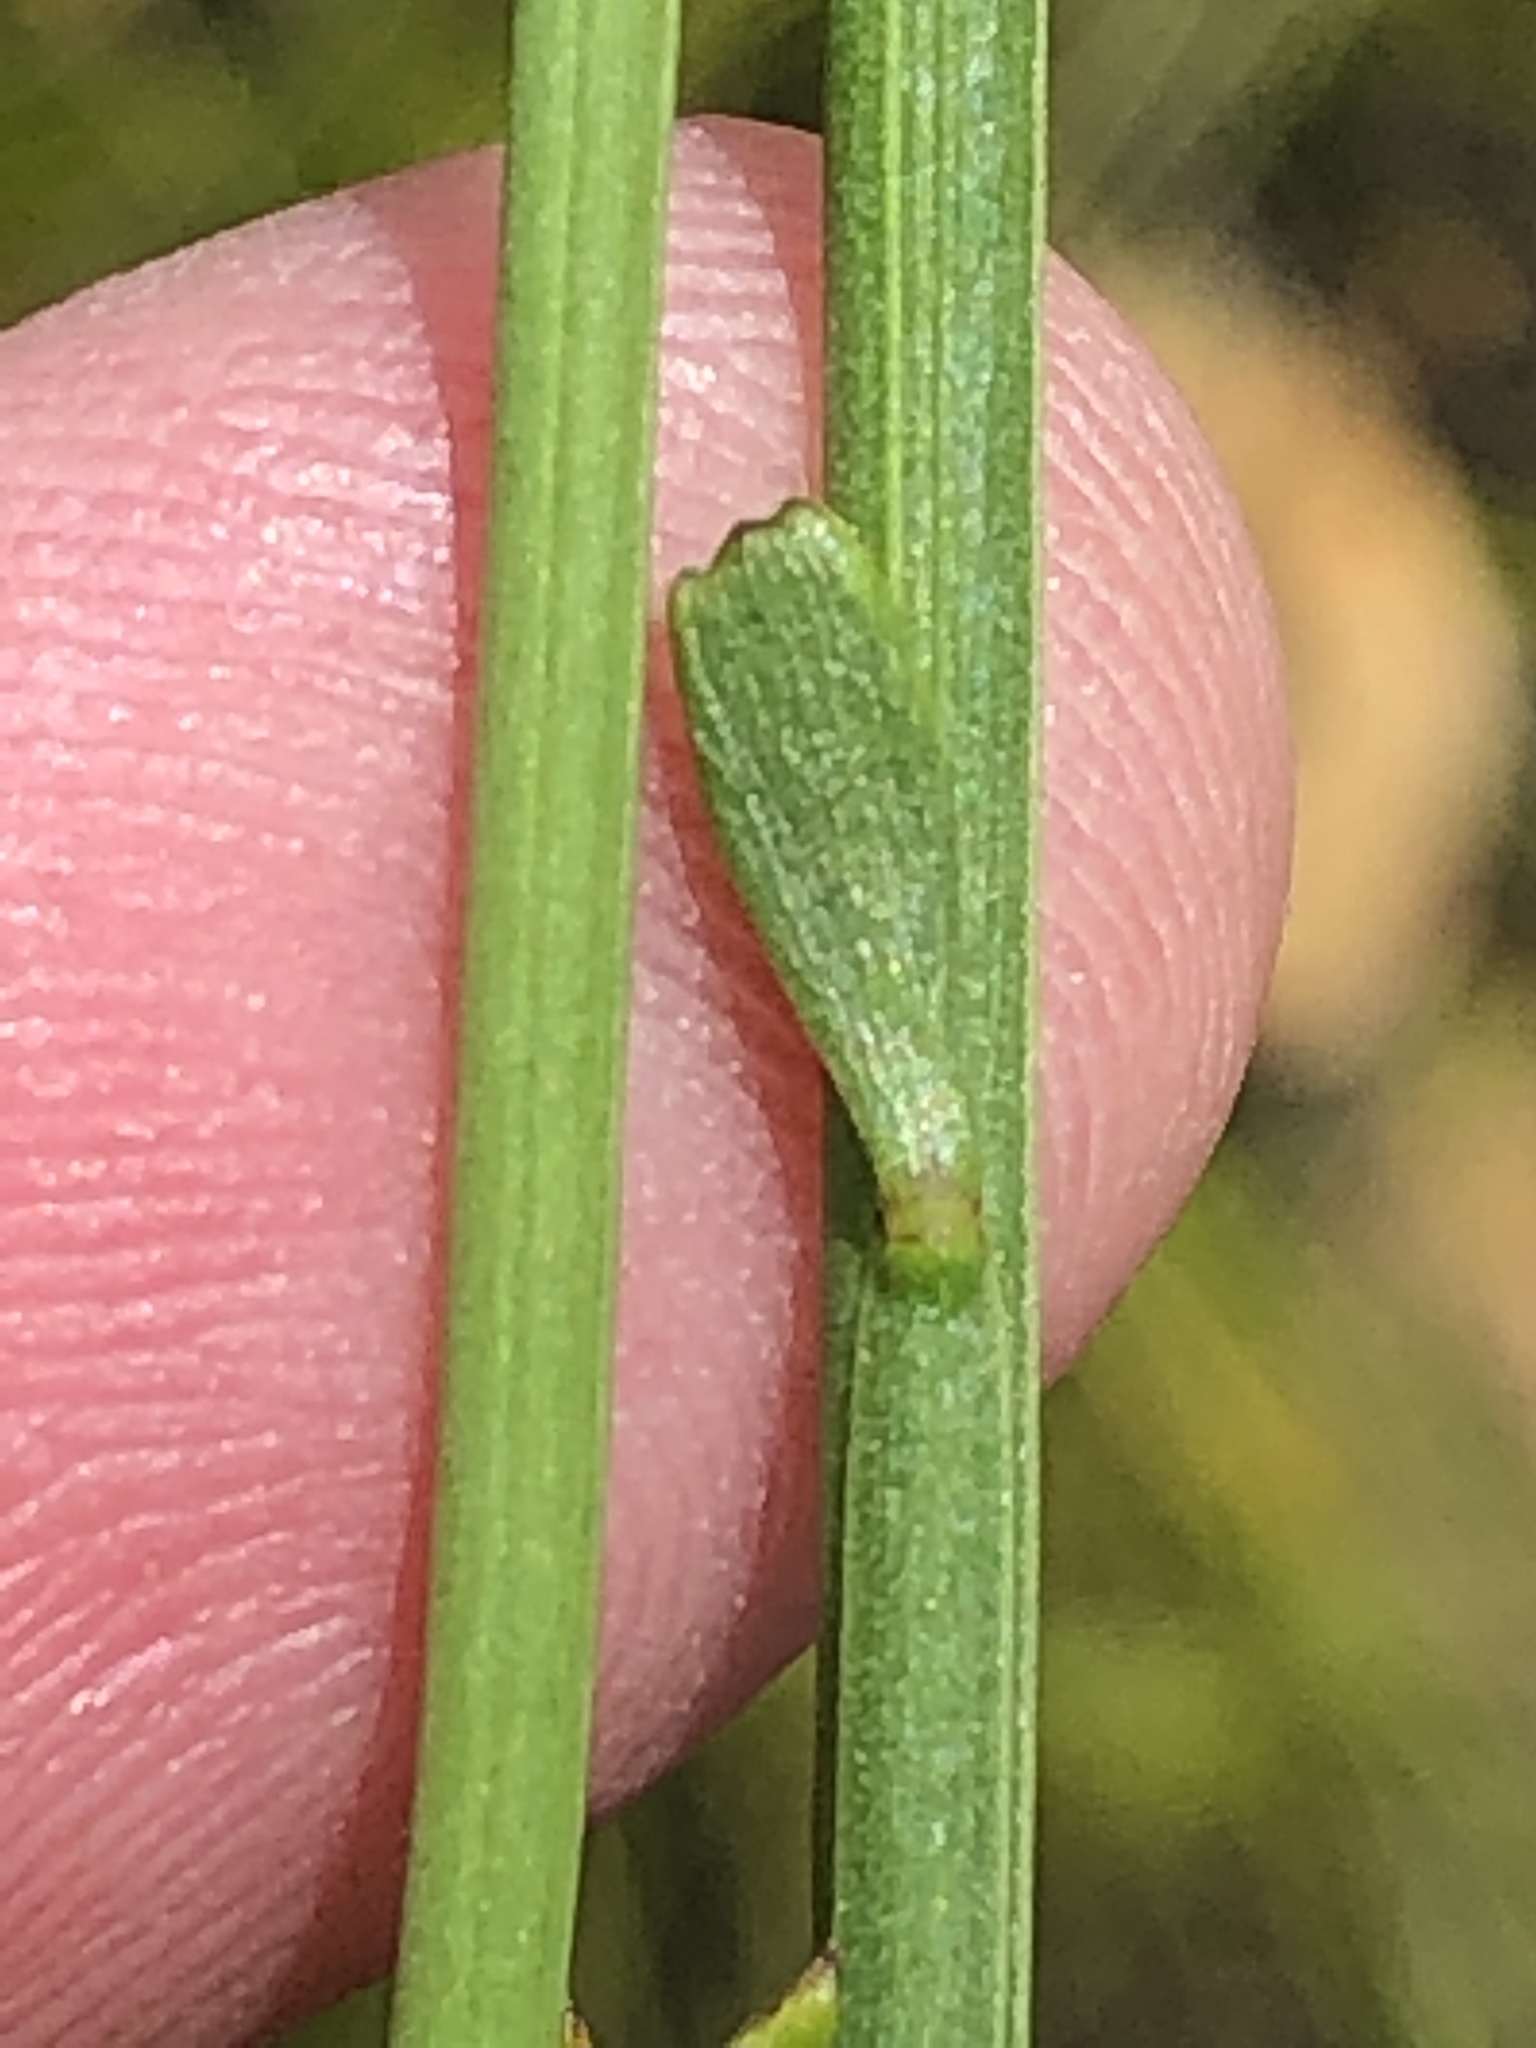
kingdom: Plantae
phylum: Tracheophyta
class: Magnoliopsida
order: Brassicales
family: Brassicaceae
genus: Heliophila
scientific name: Heliophila elongata
